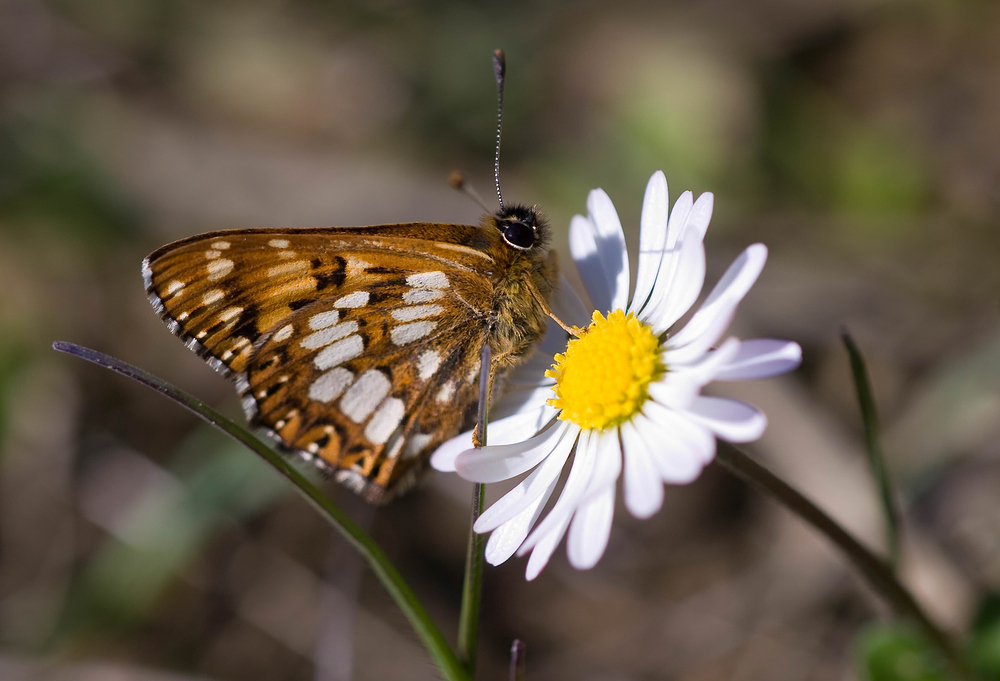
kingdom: Animalia
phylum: Arthropoda
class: Insecta
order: Lepidoptera
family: Riodinidae
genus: Hamearis
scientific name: Hamearis lucina
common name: Duke of burgundy fritillary
